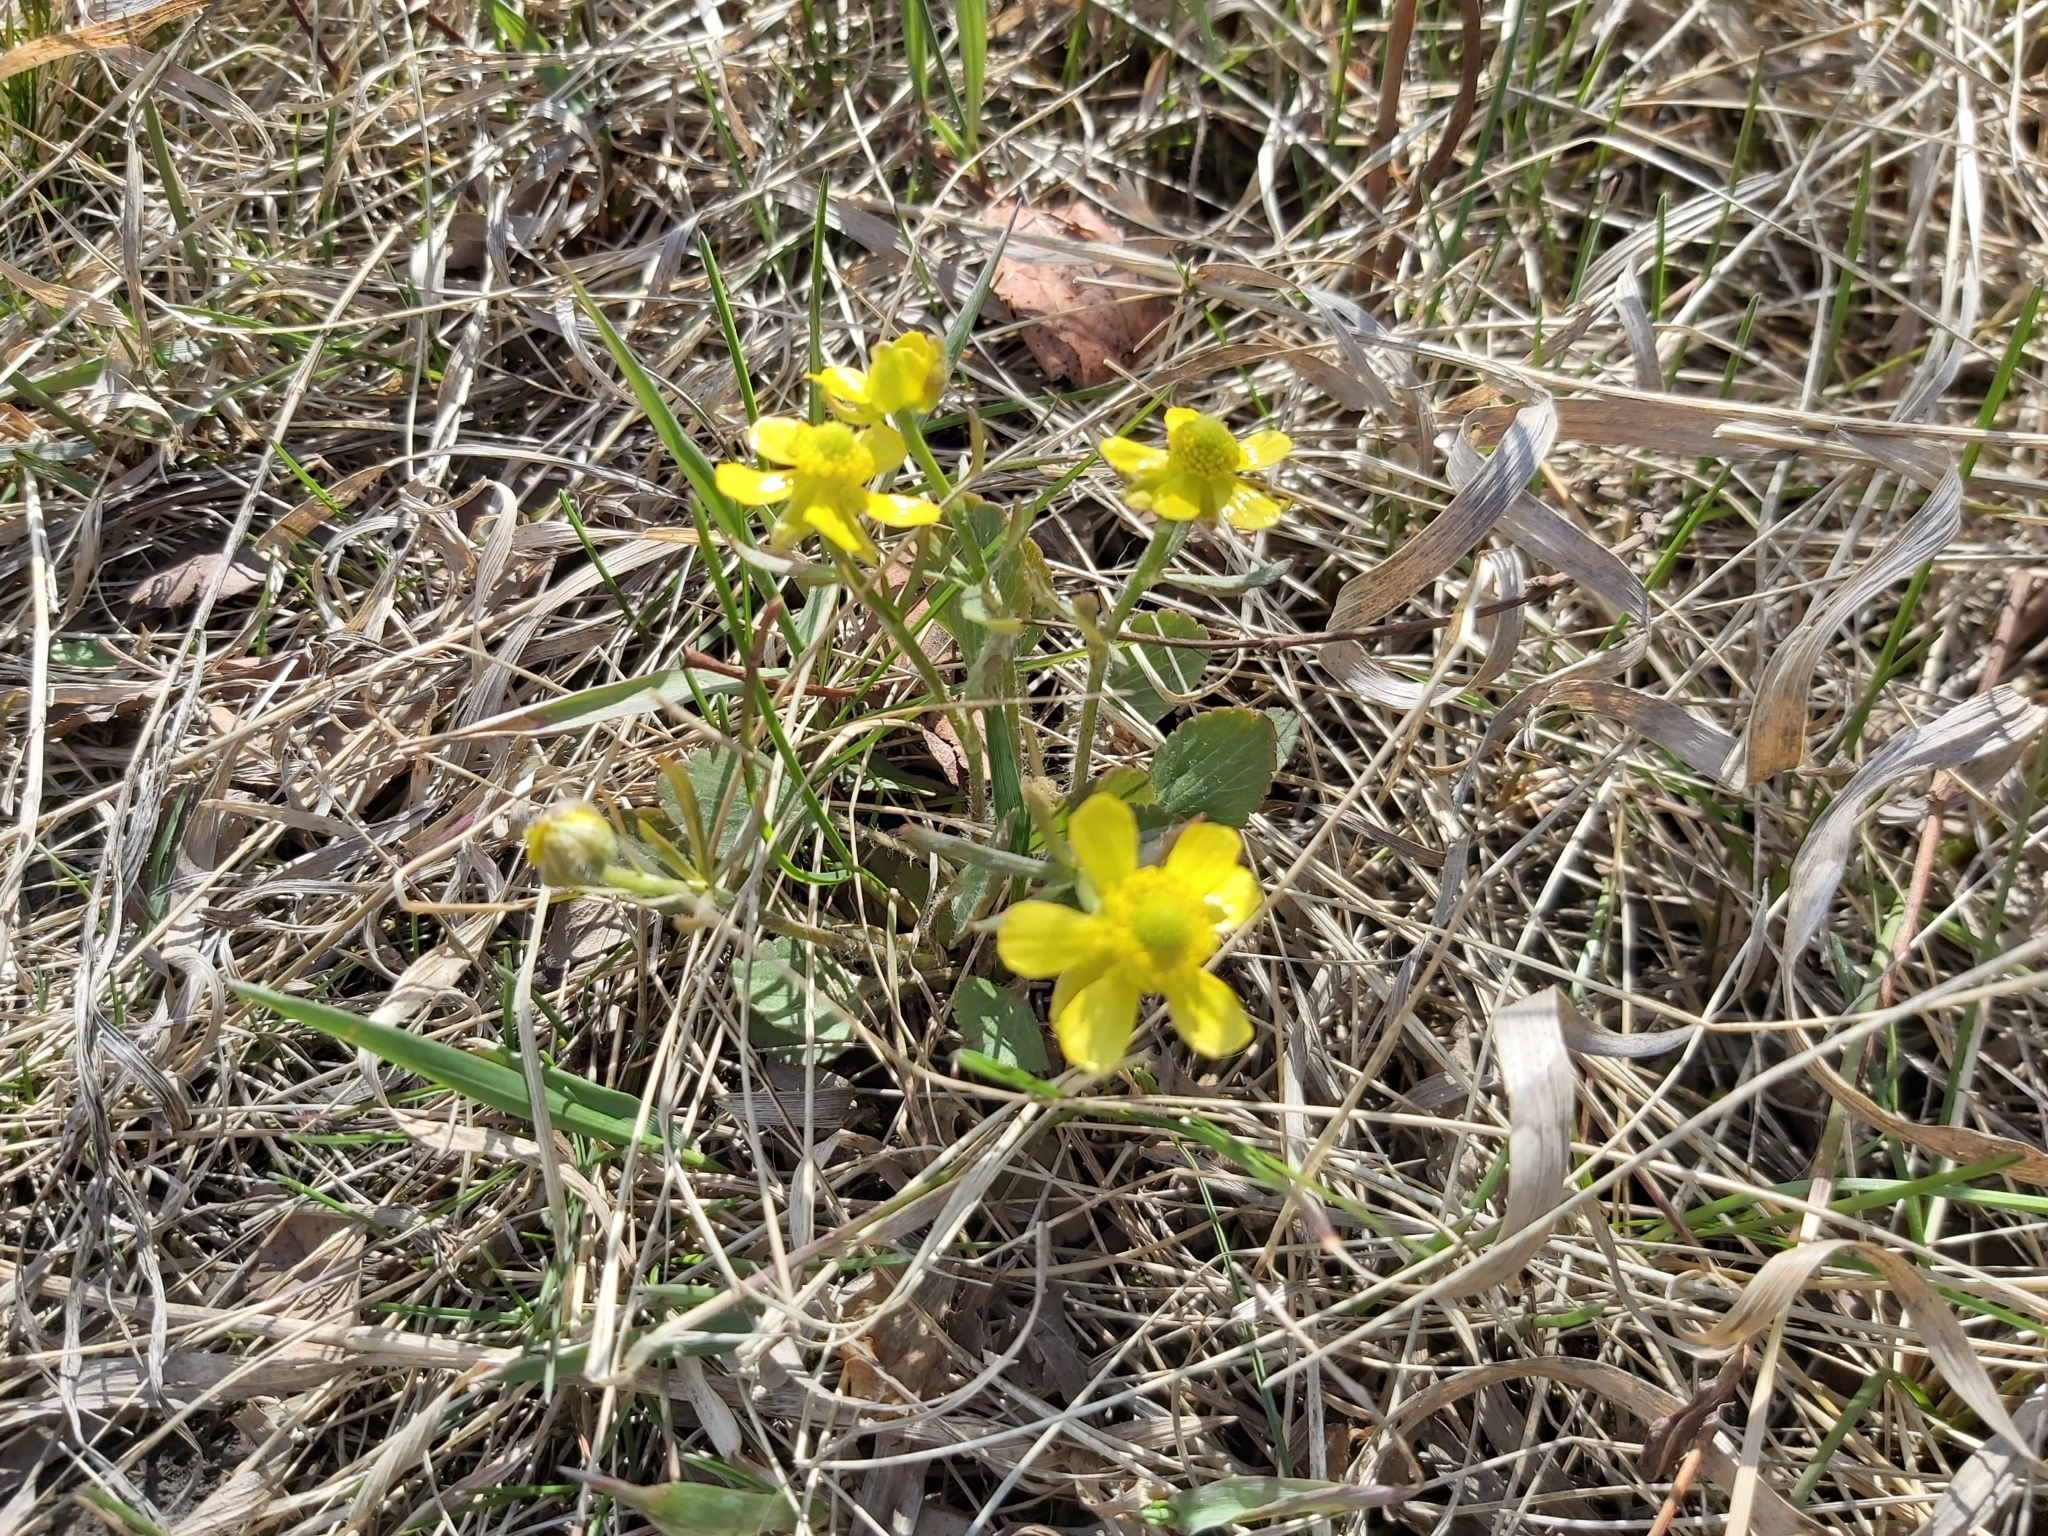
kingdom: Plantae
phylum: Tracheophyta
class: Magnoliopsida
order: Ranunculales
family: Ranunculaceae
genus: Ranunculus
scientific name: Ranunculus rhomboideus
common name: Prairie buttercup
